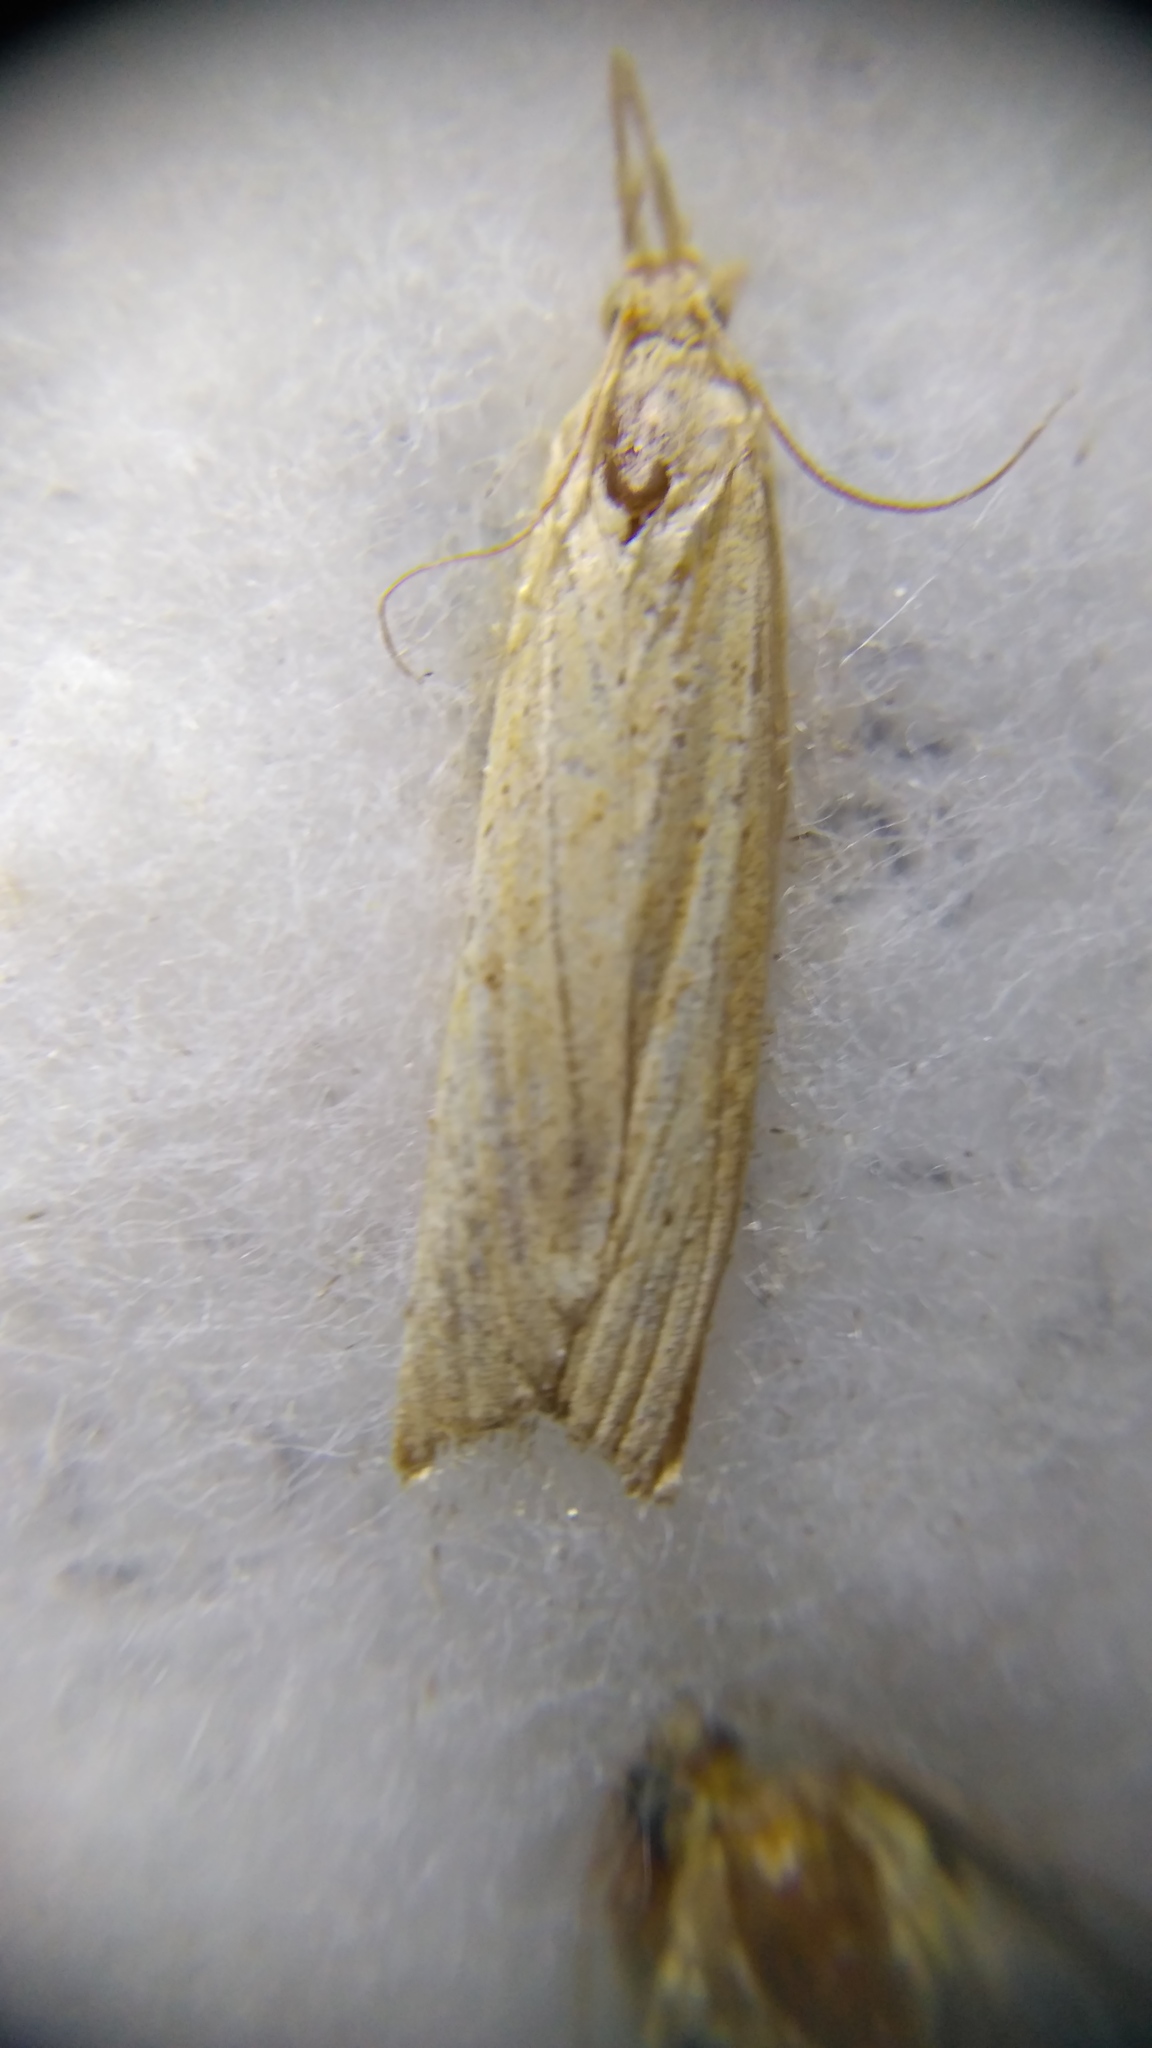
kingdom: Animalia
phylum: Arthropoda
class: Insecta
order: Lepidoptera
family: Crambidae
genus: Agriphila
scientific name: Agriphila straminella
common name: Straw grass-veneer
